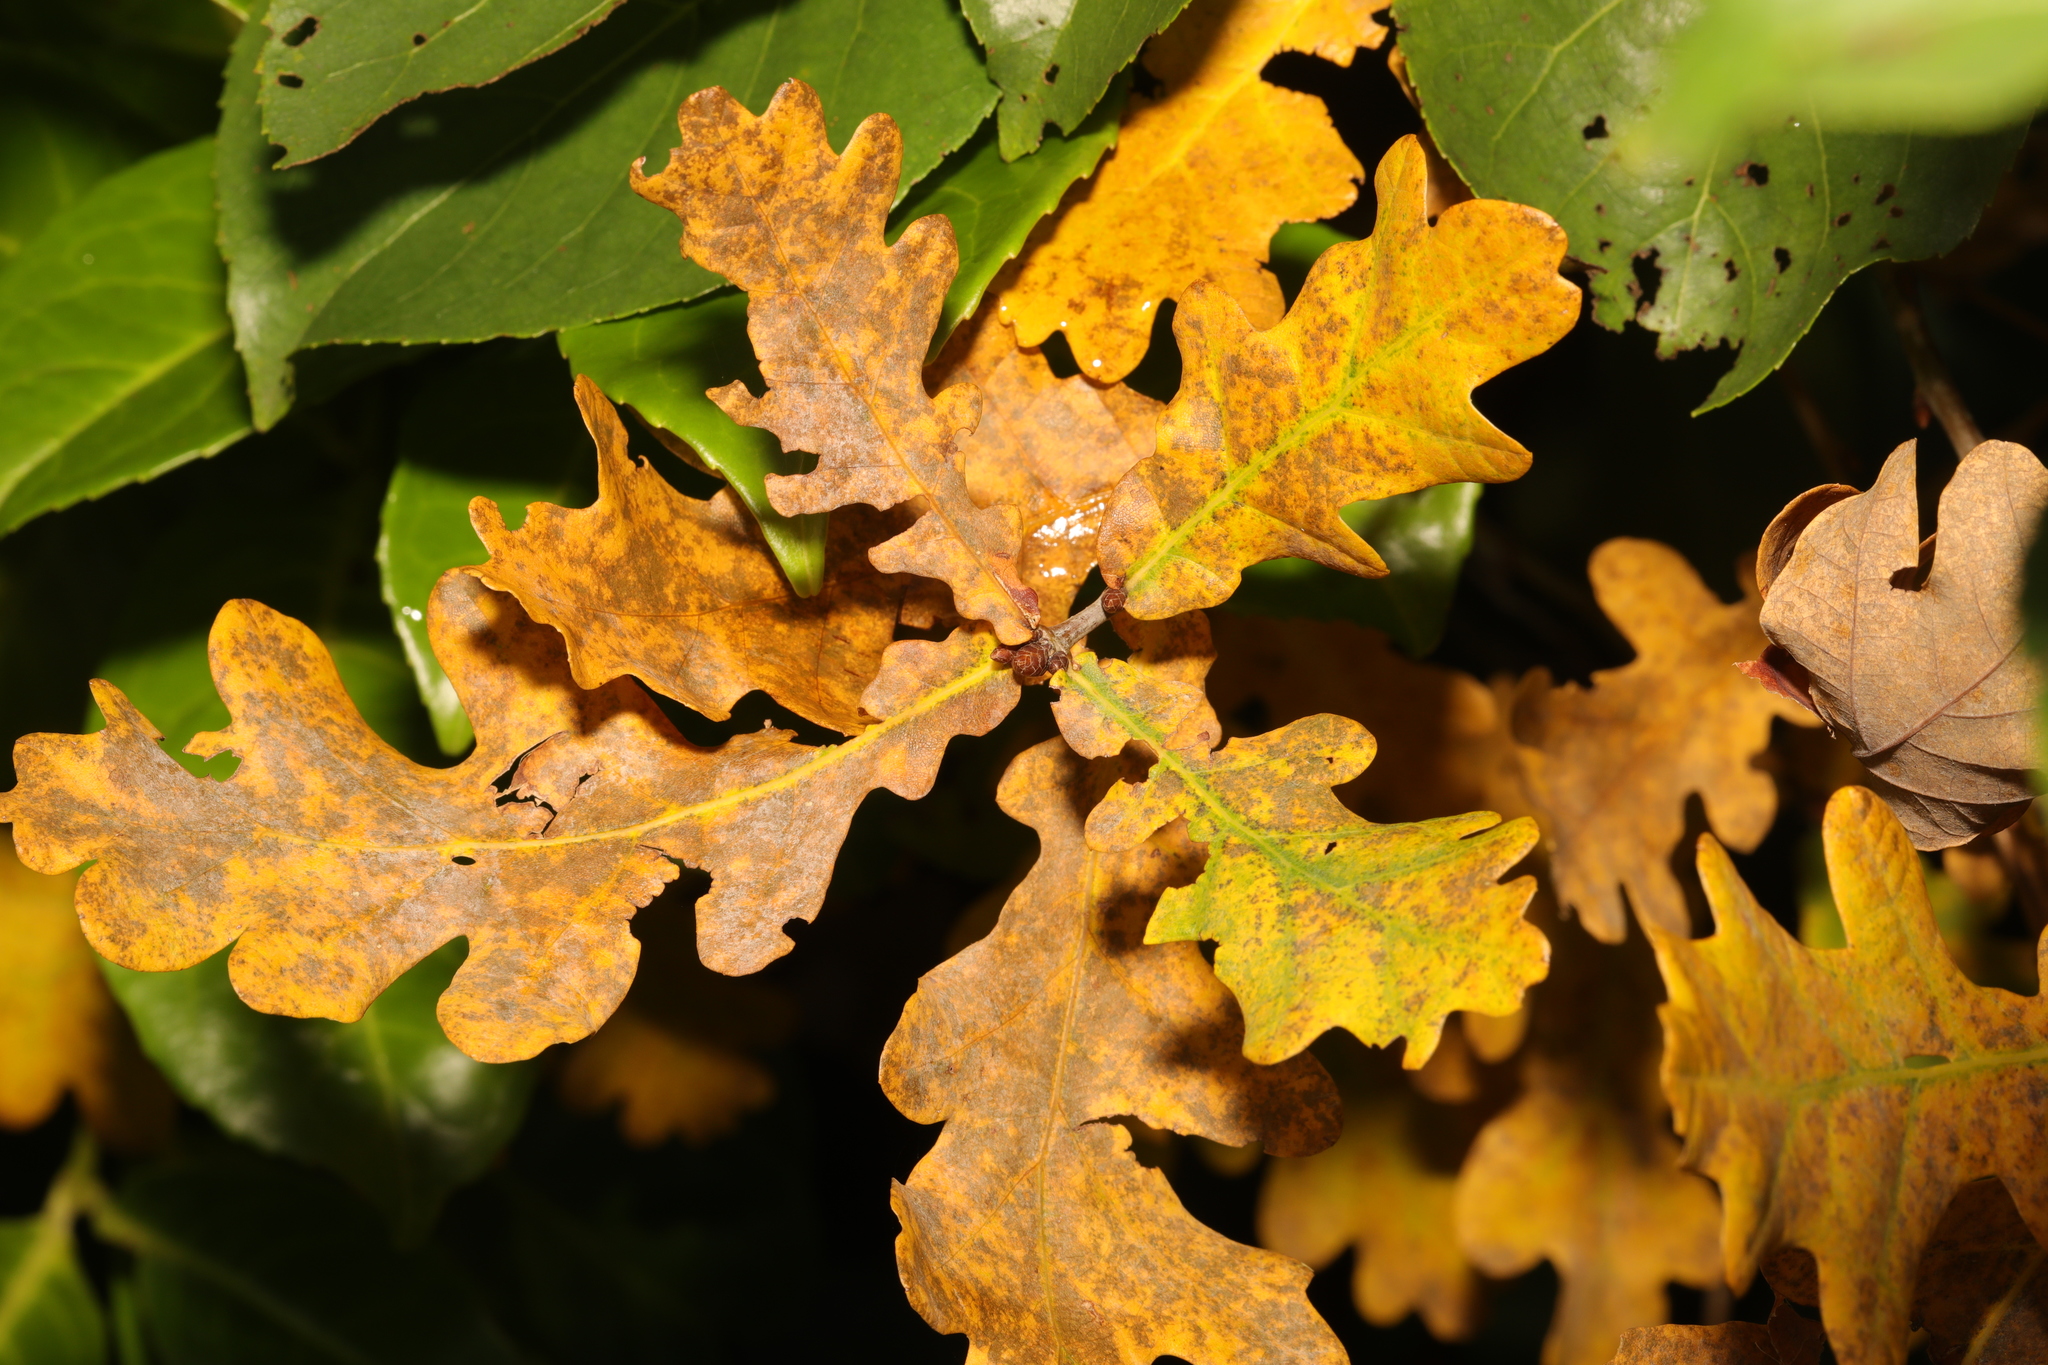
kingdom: Plantae
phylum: Tracheophyta
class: Magnoliopsida
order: Fagales
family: Fagaceae
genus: Quercus
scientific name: Quercus robur
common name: Pedunculate oak
